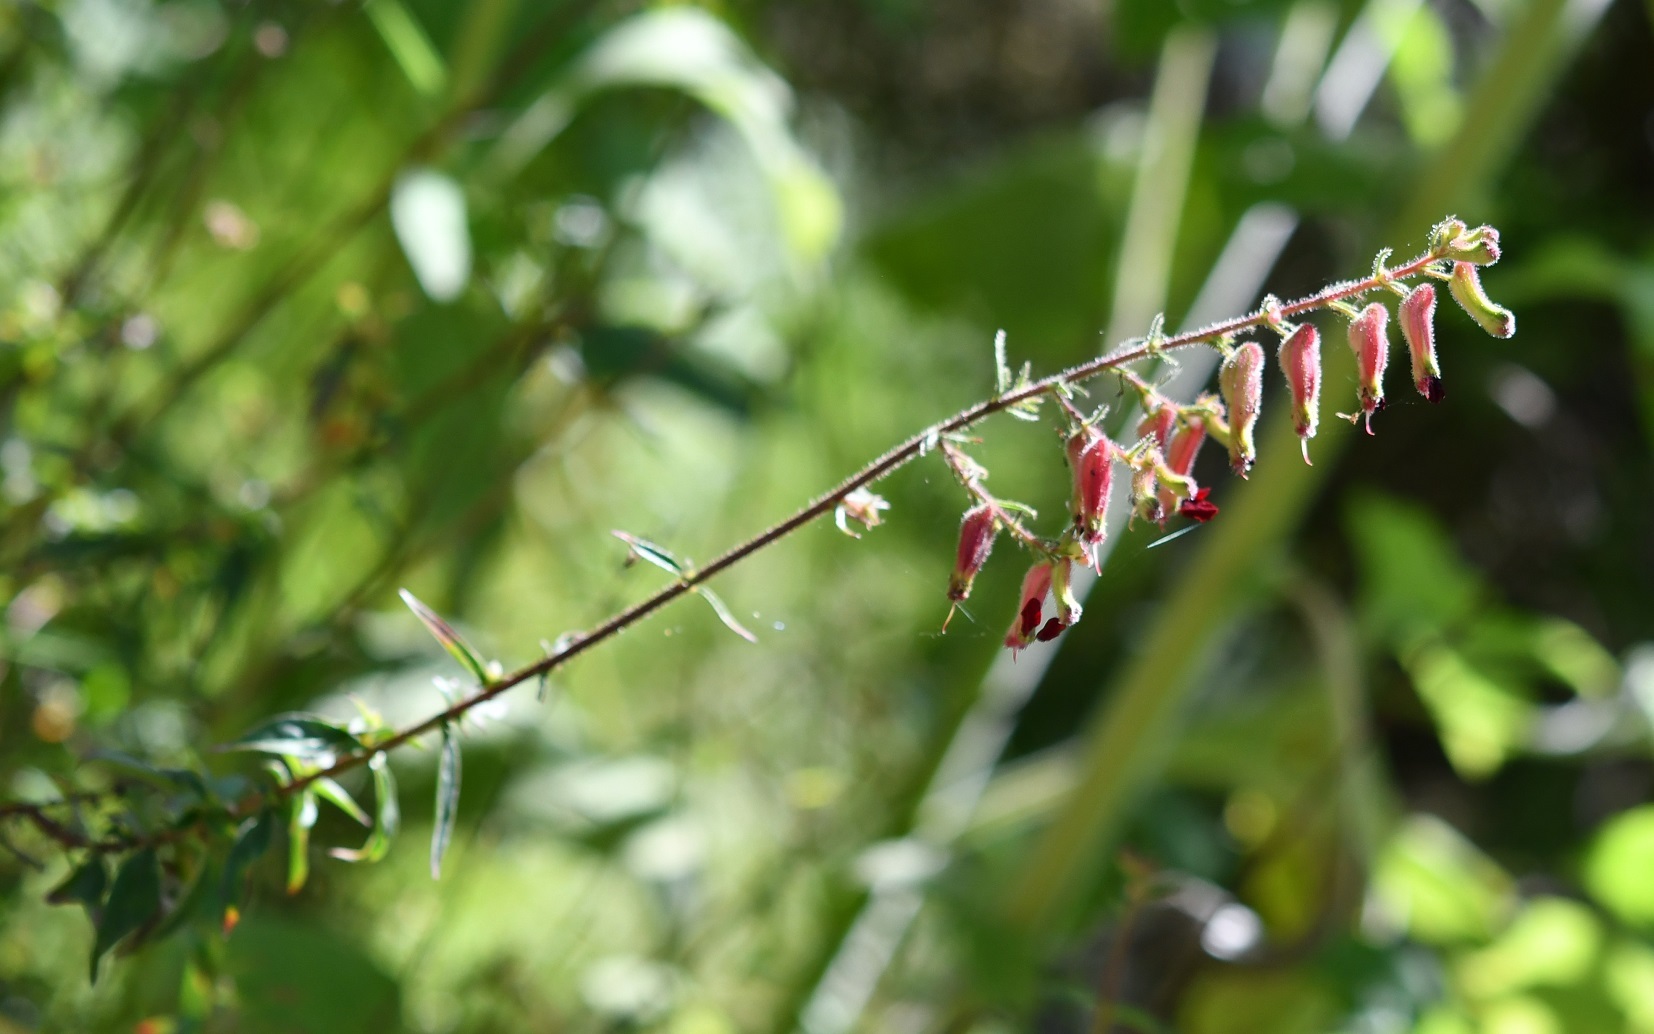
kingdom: Plantae
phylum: Tracheophyta
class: Magnoliopsida
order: Myrtales
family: Lythraceae
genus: Cuphea
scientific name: Cuphea hookeriana
